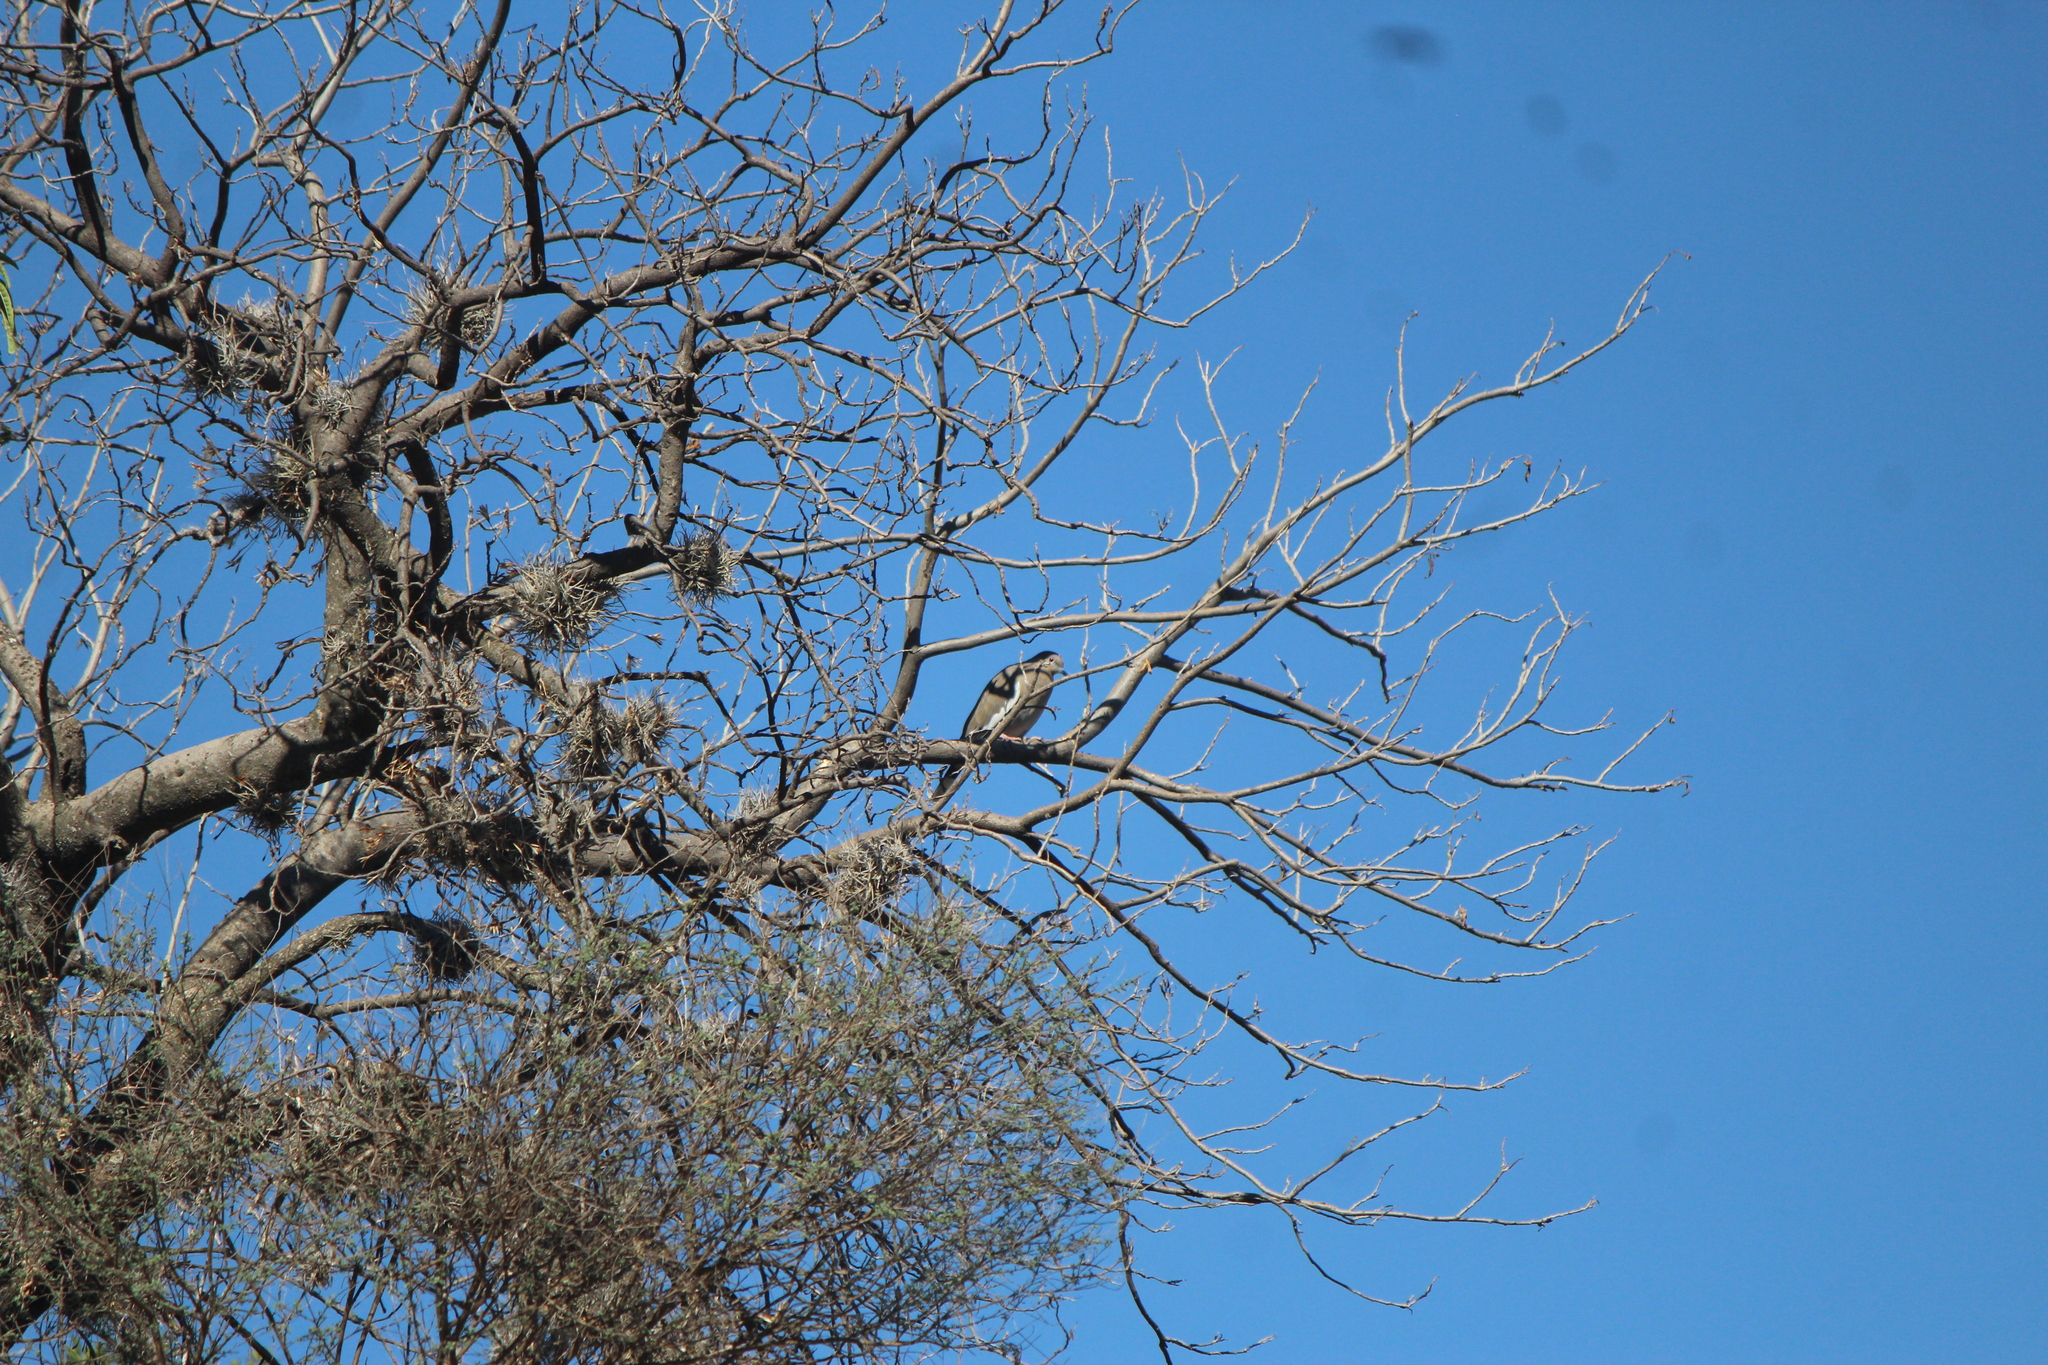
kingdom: Animalia
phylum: Chordata
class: Aves
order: Columbiformes
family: Columbidae
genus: Zenaida
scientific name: Zenaida asiatica
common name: White-winged dove
